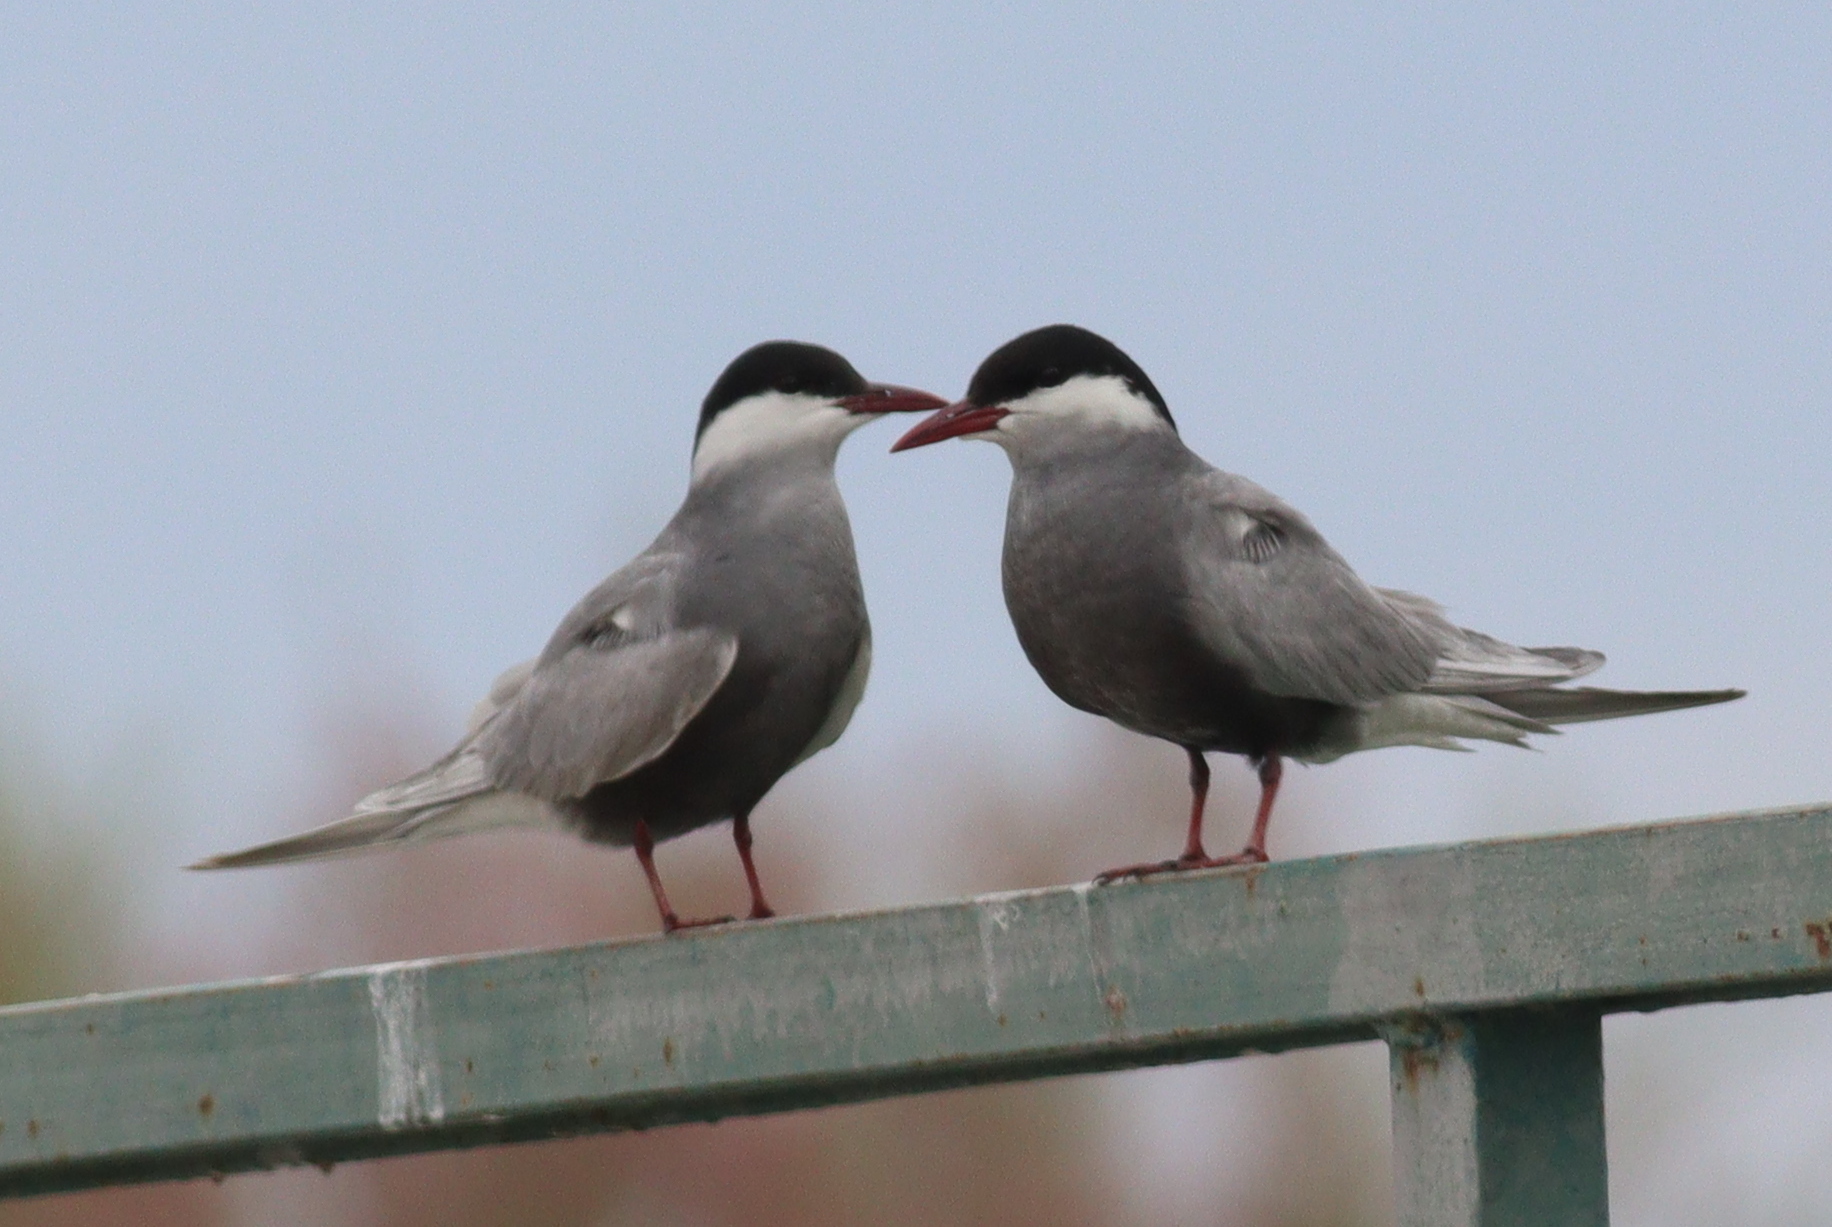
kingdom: Animalia
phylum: Chordata
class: Aves
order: Charadriiformes
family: Laridae
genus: Chlidonias
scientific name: Chlidonias hybrida
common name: Whiskered tern
